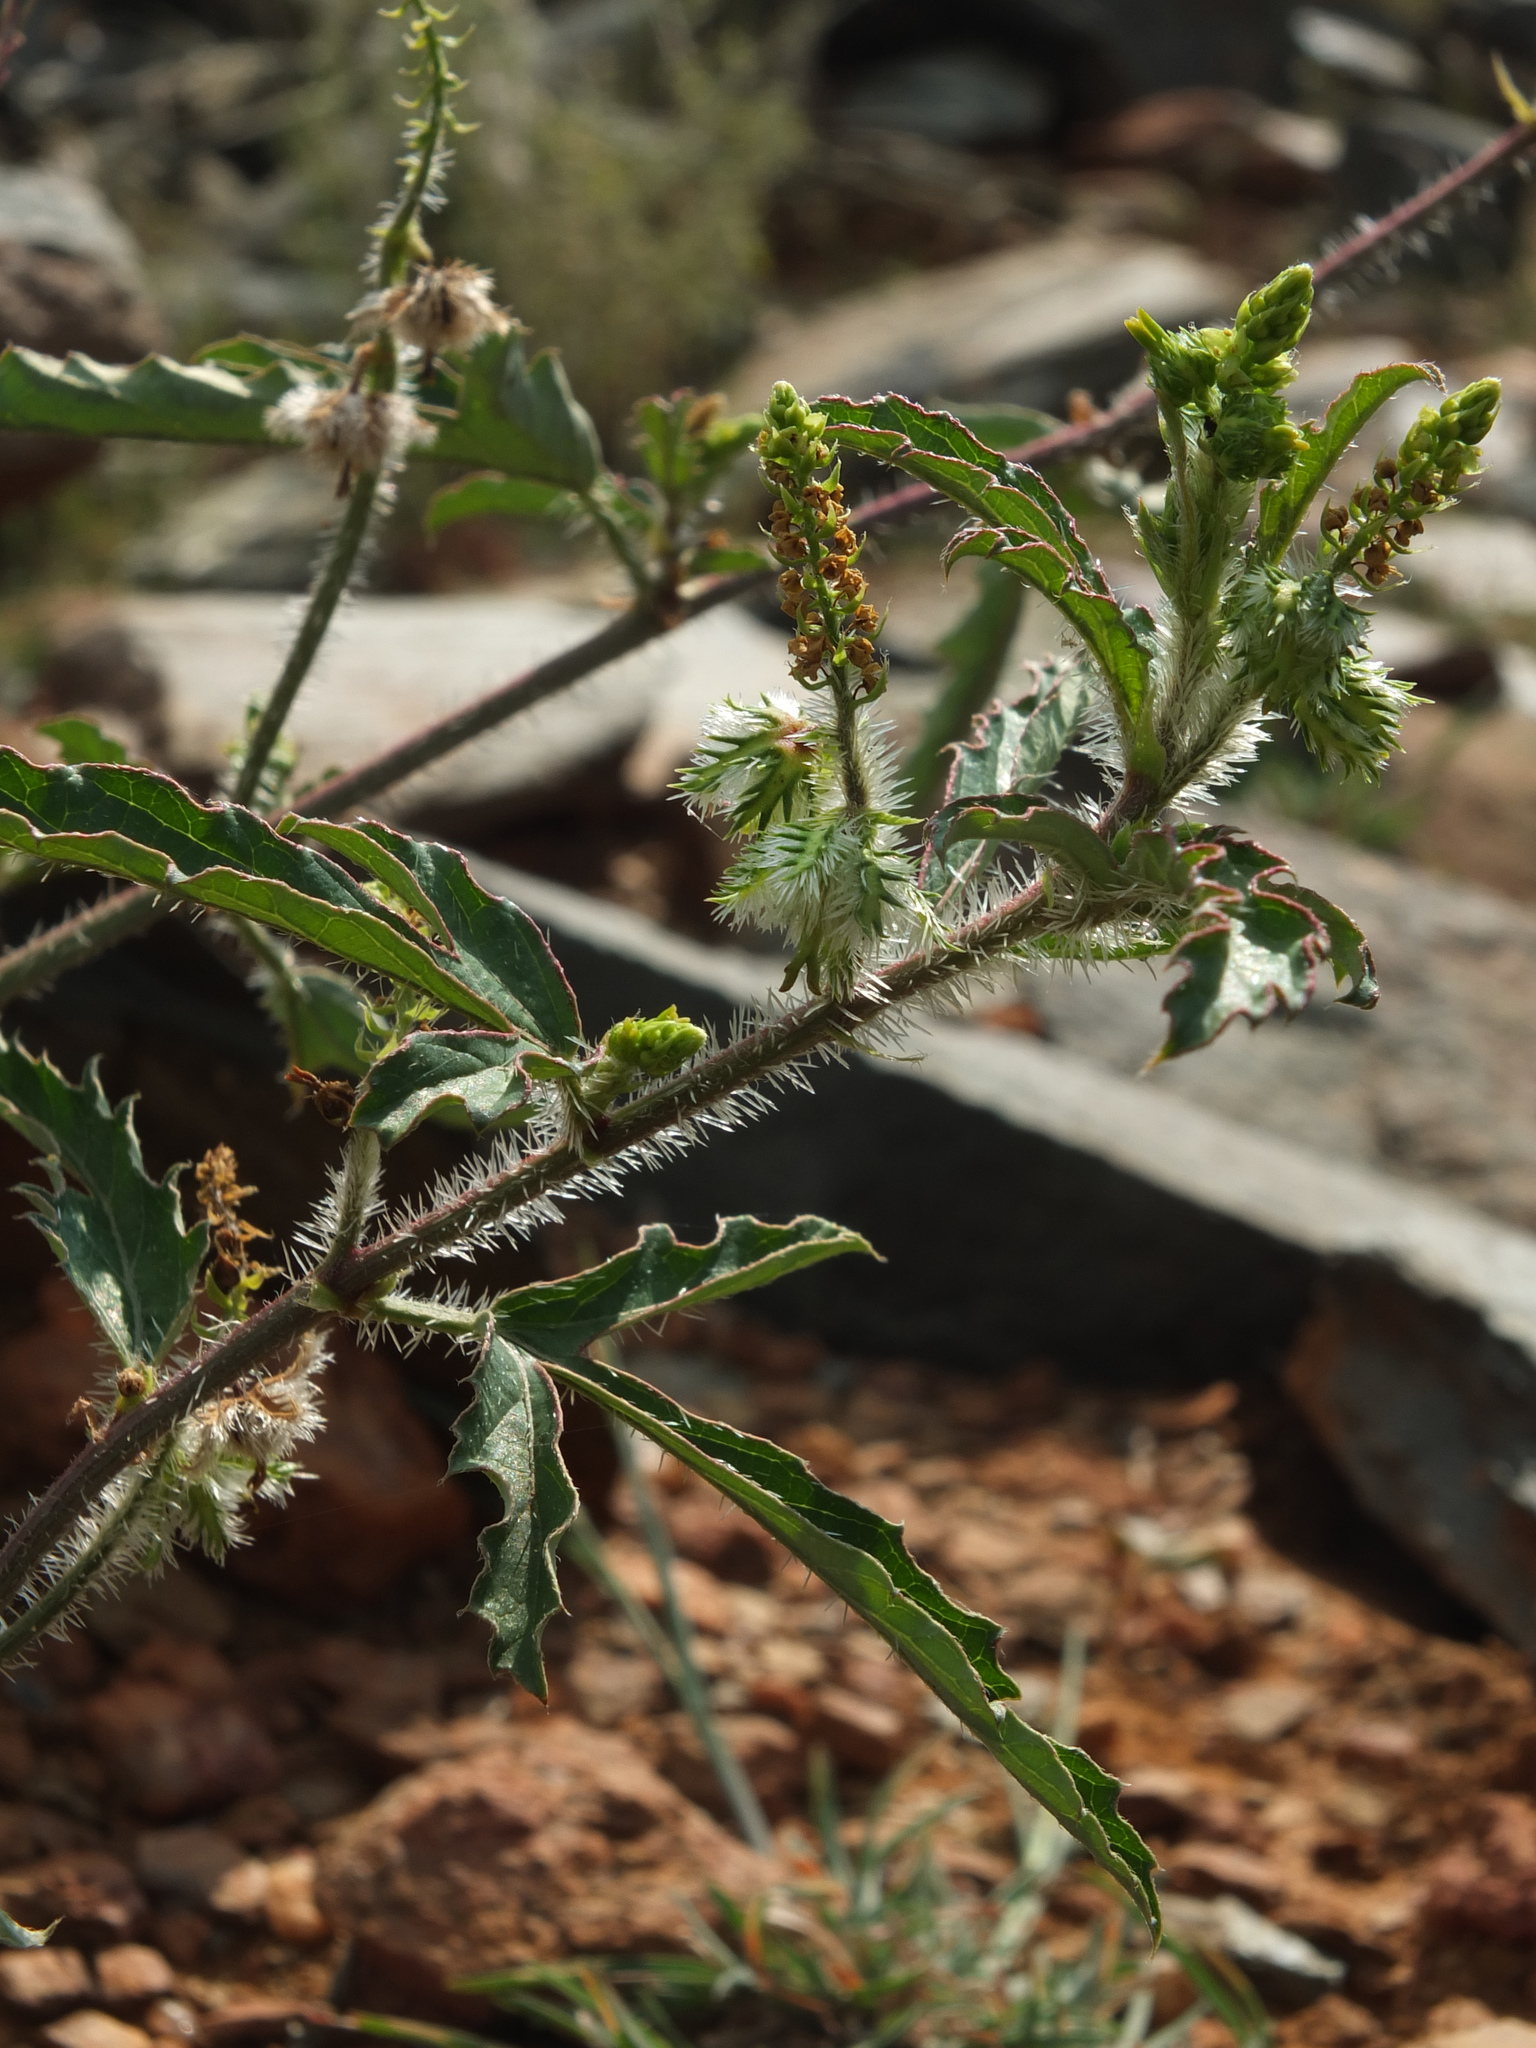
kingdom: Plantae
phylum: Tracheophyta
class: Magnoliopsida
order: Malpighiales
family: Euphorbiaceae
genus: Tragia
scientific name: Tragia plukenetii
